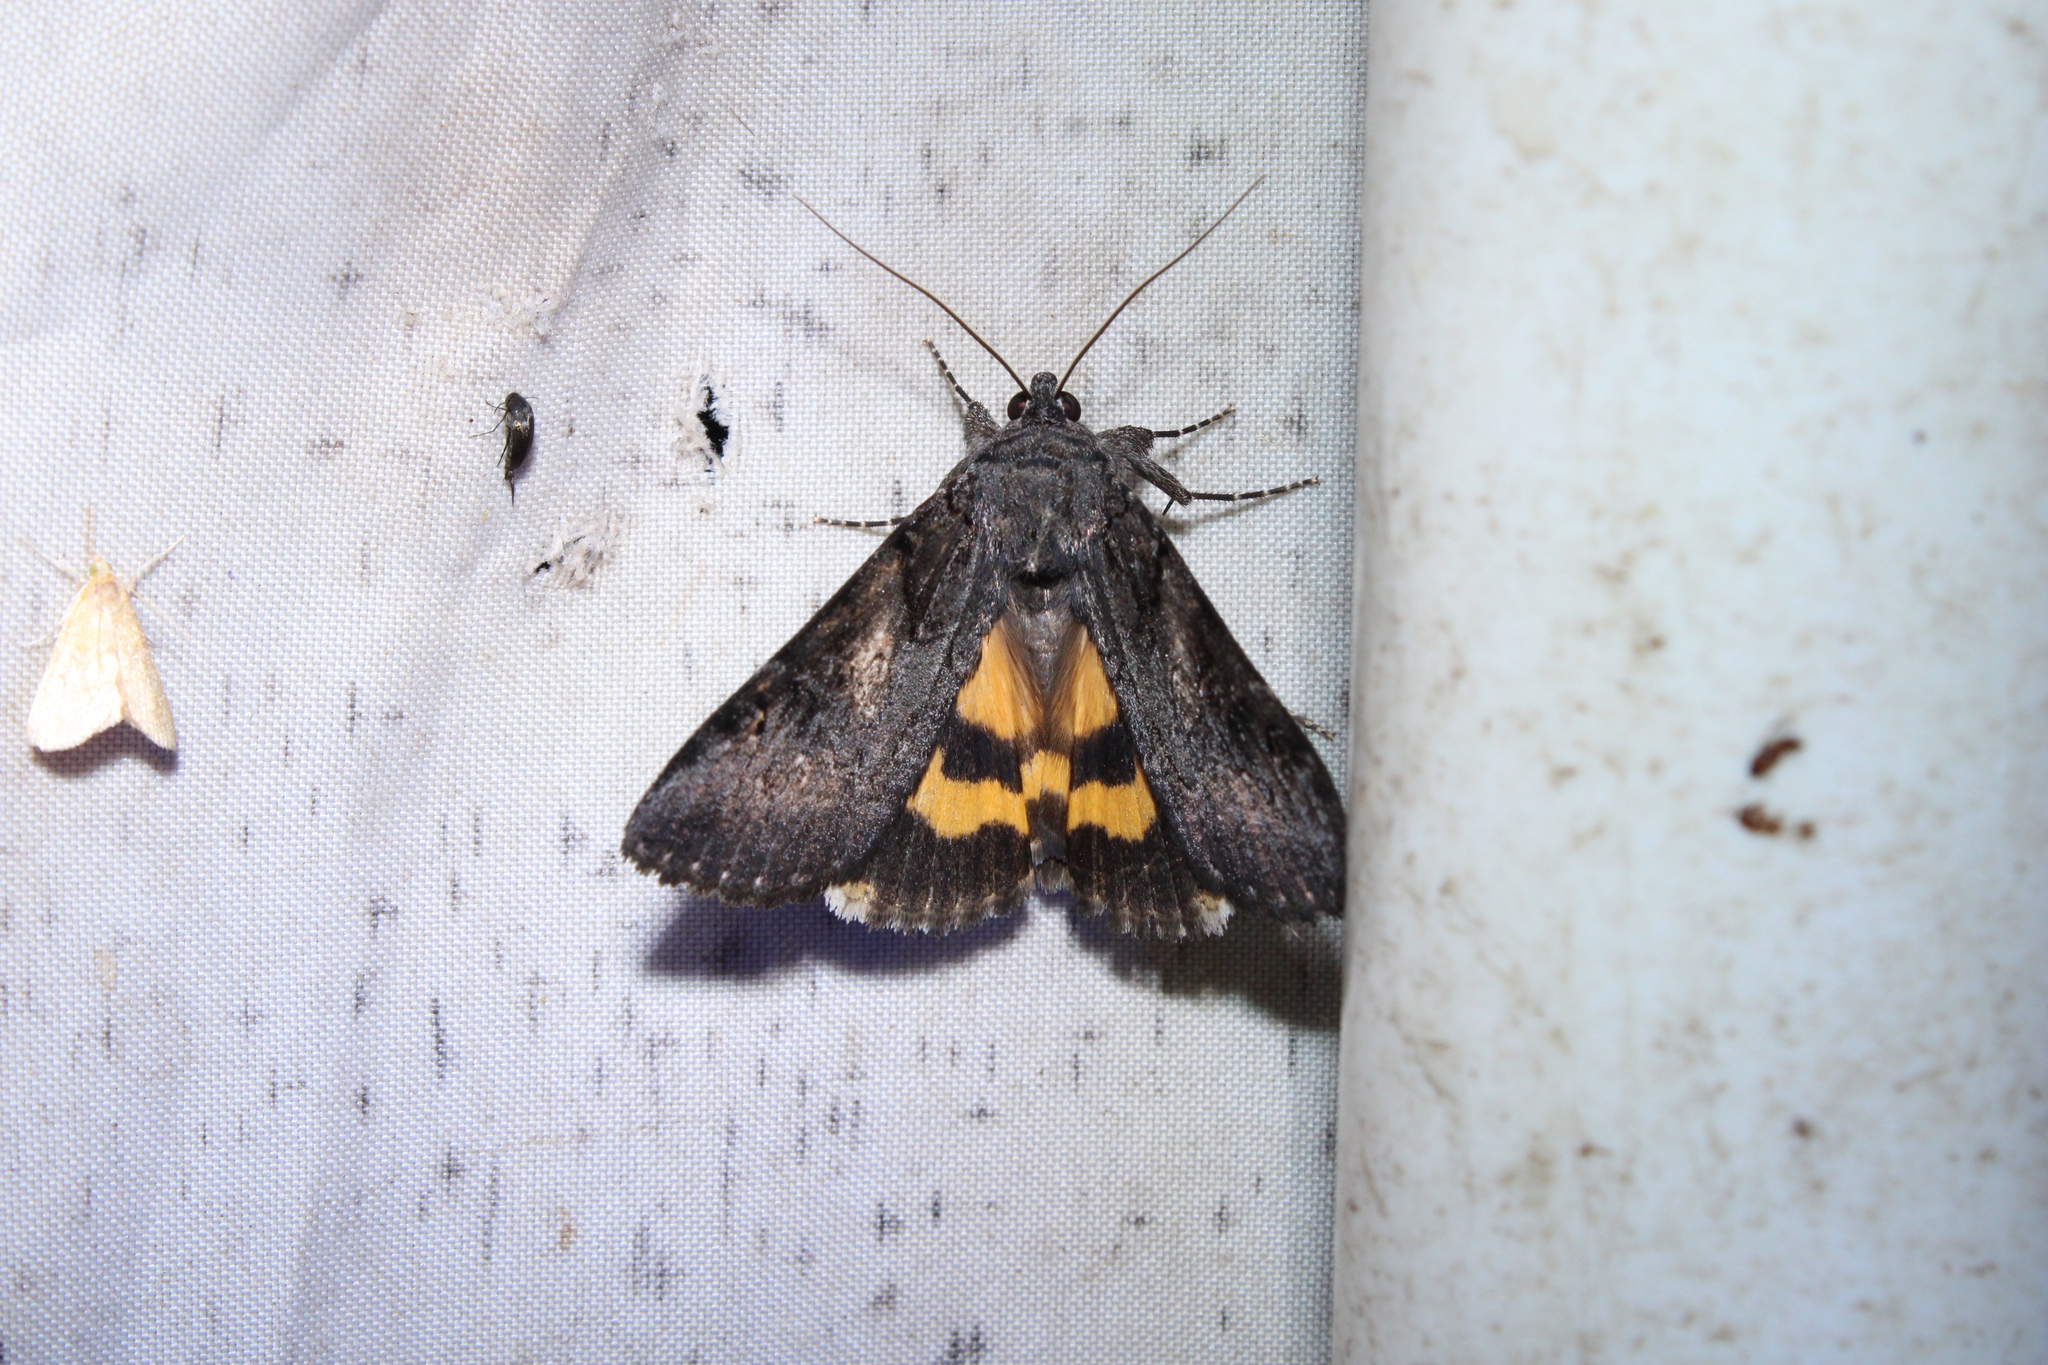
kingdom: Animalia
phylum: Arthropoda
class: Insecta
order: Lepidoptera
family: Erebidae
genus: Catocala
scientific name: Catocala antinympha
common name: Sweetfern underwing
